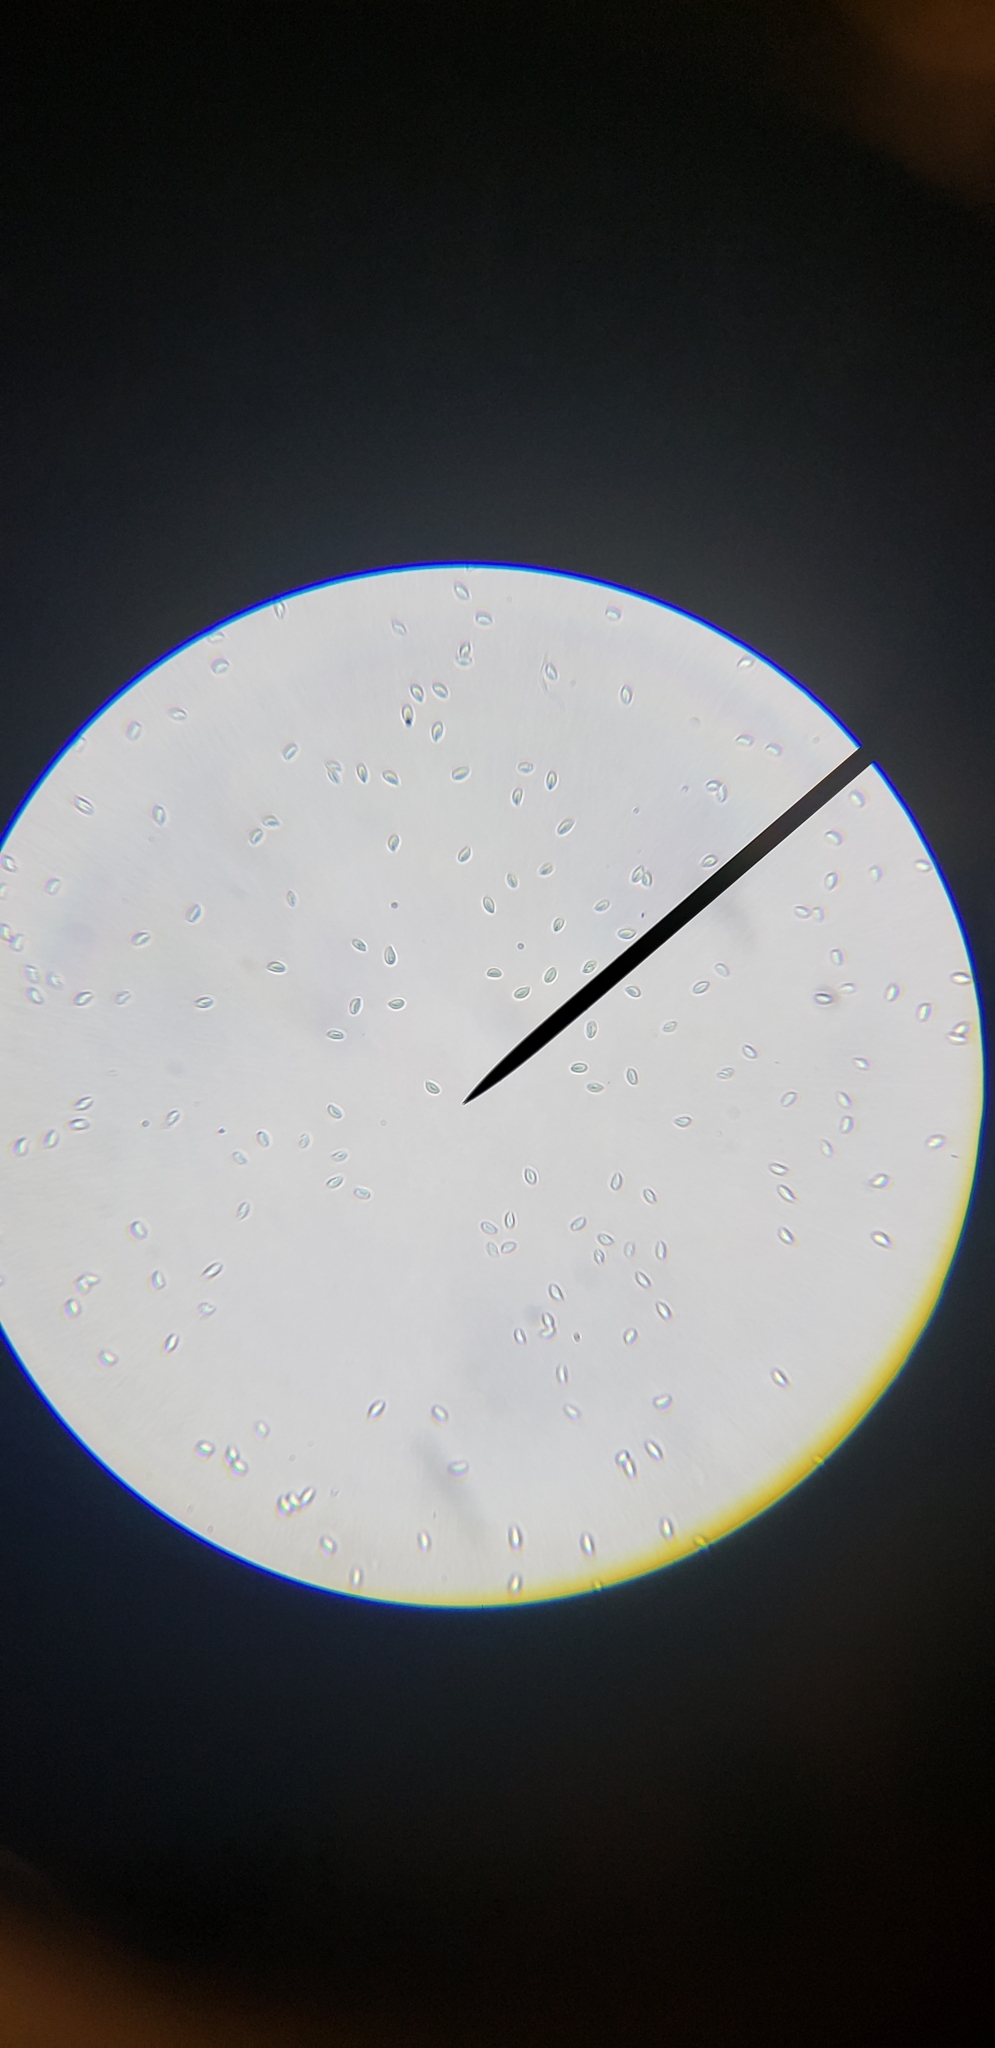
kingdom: Fungi
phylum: Basidiomycota
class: Agaricomycetes
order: Agaricales
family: Omphalotaceae
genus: Gymnopus
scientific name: Gymnopus subsulphureus
